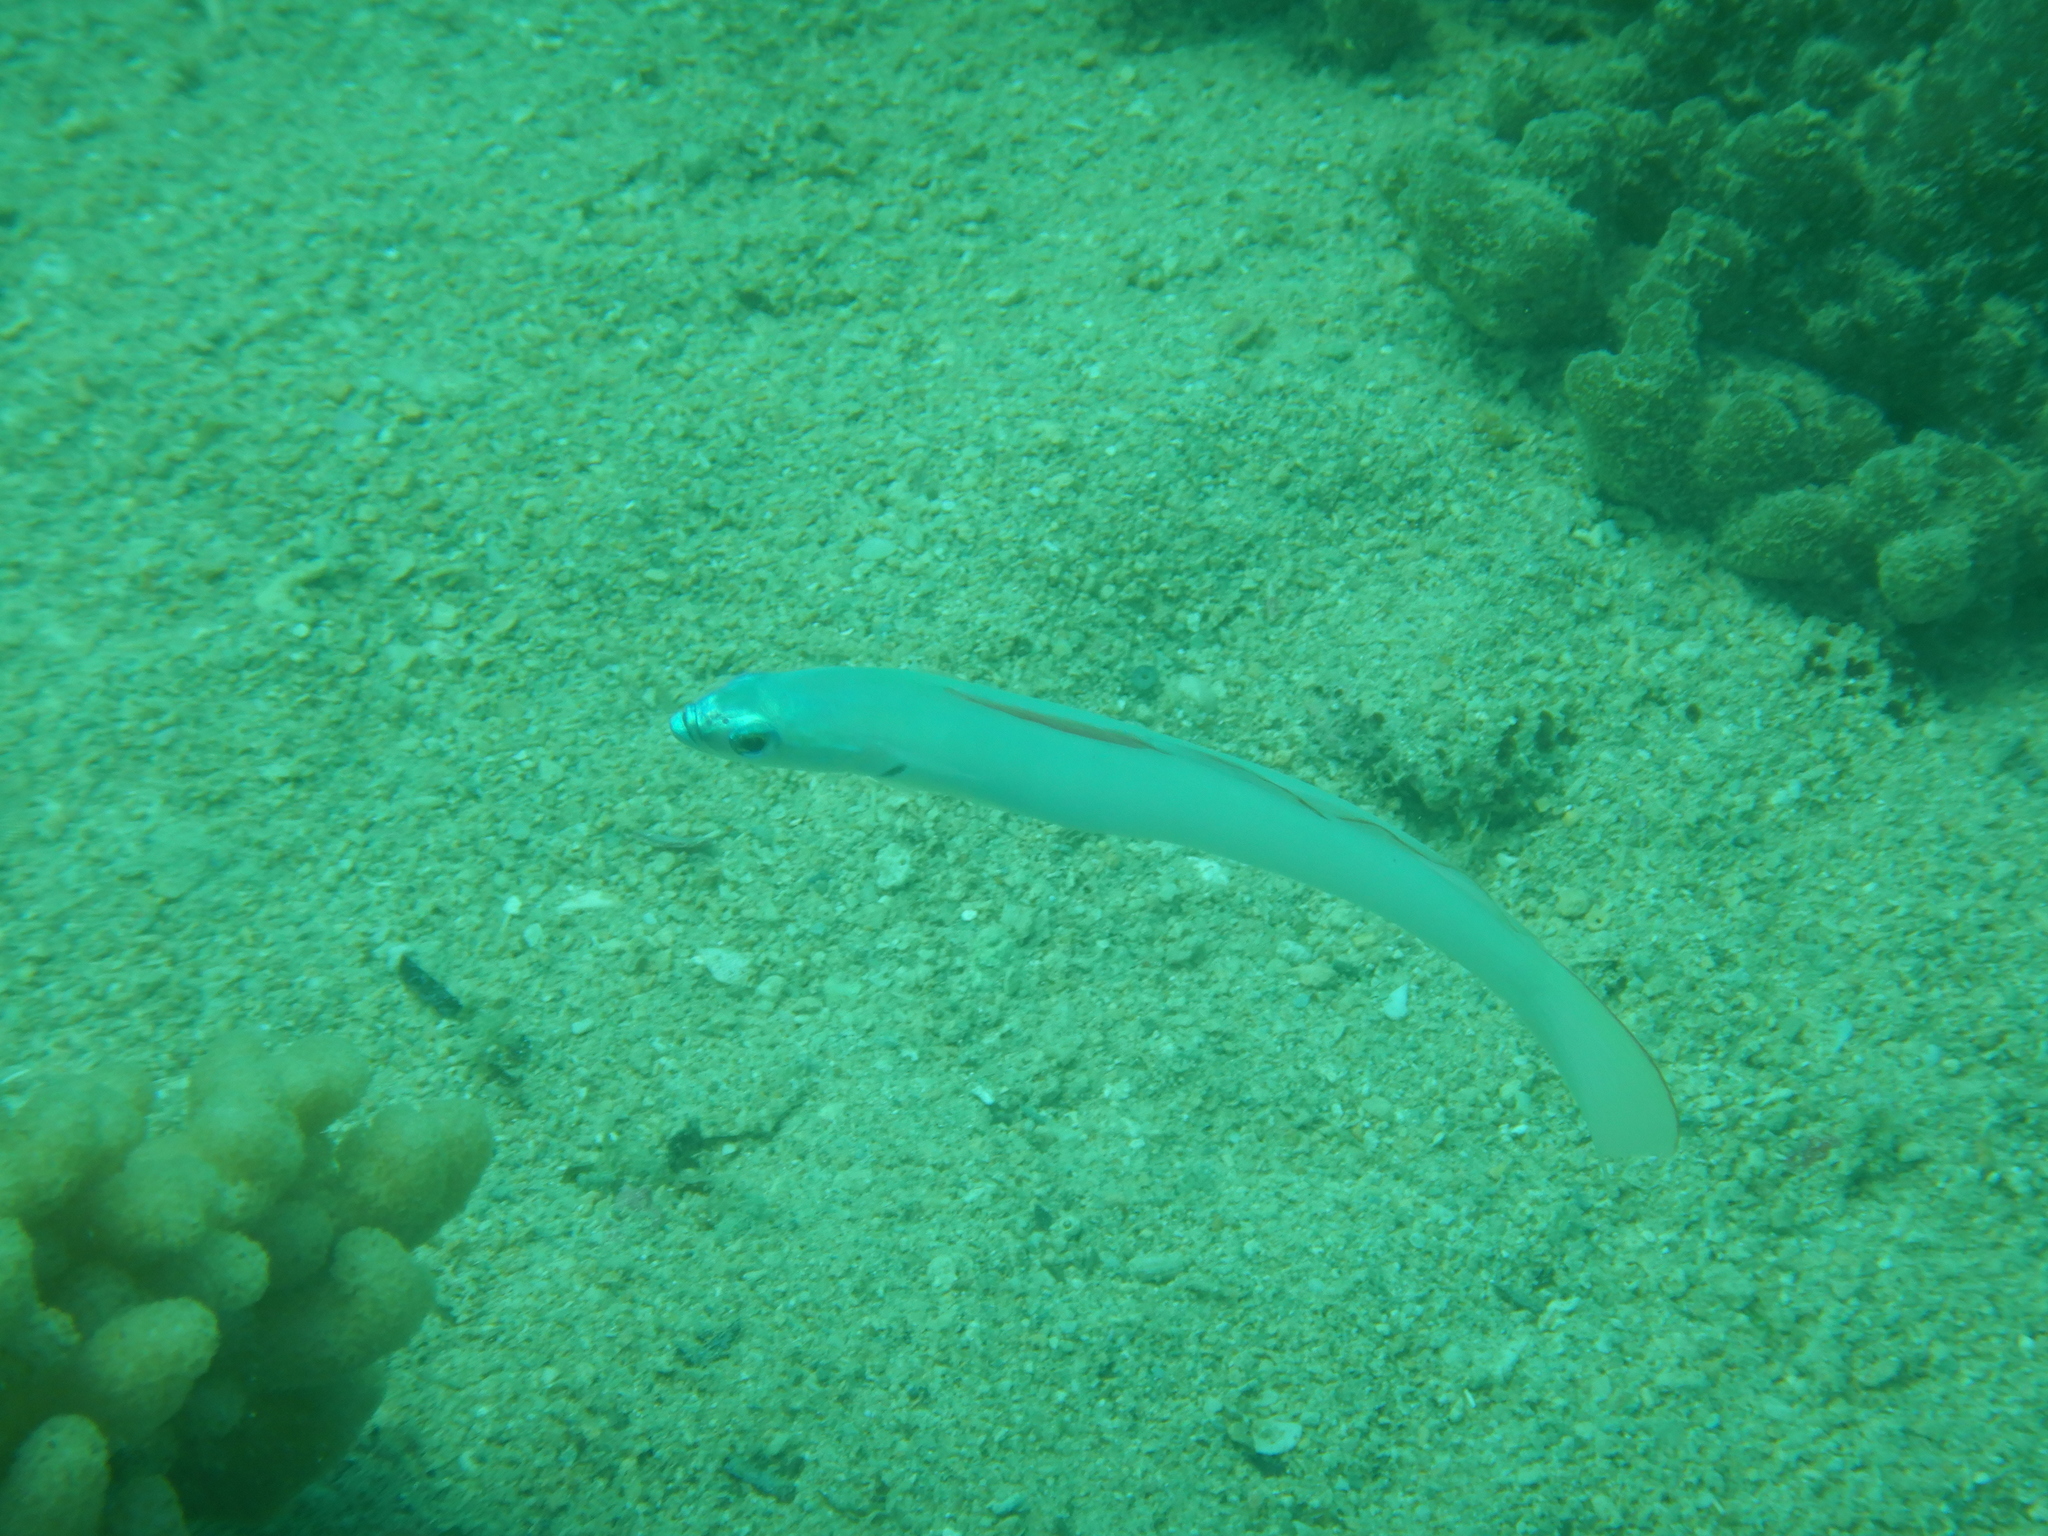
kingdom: Animalia
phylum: Chordata
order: Perciformes
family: Microdesmidae
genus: Ptereleotris
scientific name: Ptereleotris microlepis
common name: Blue gudgeon
